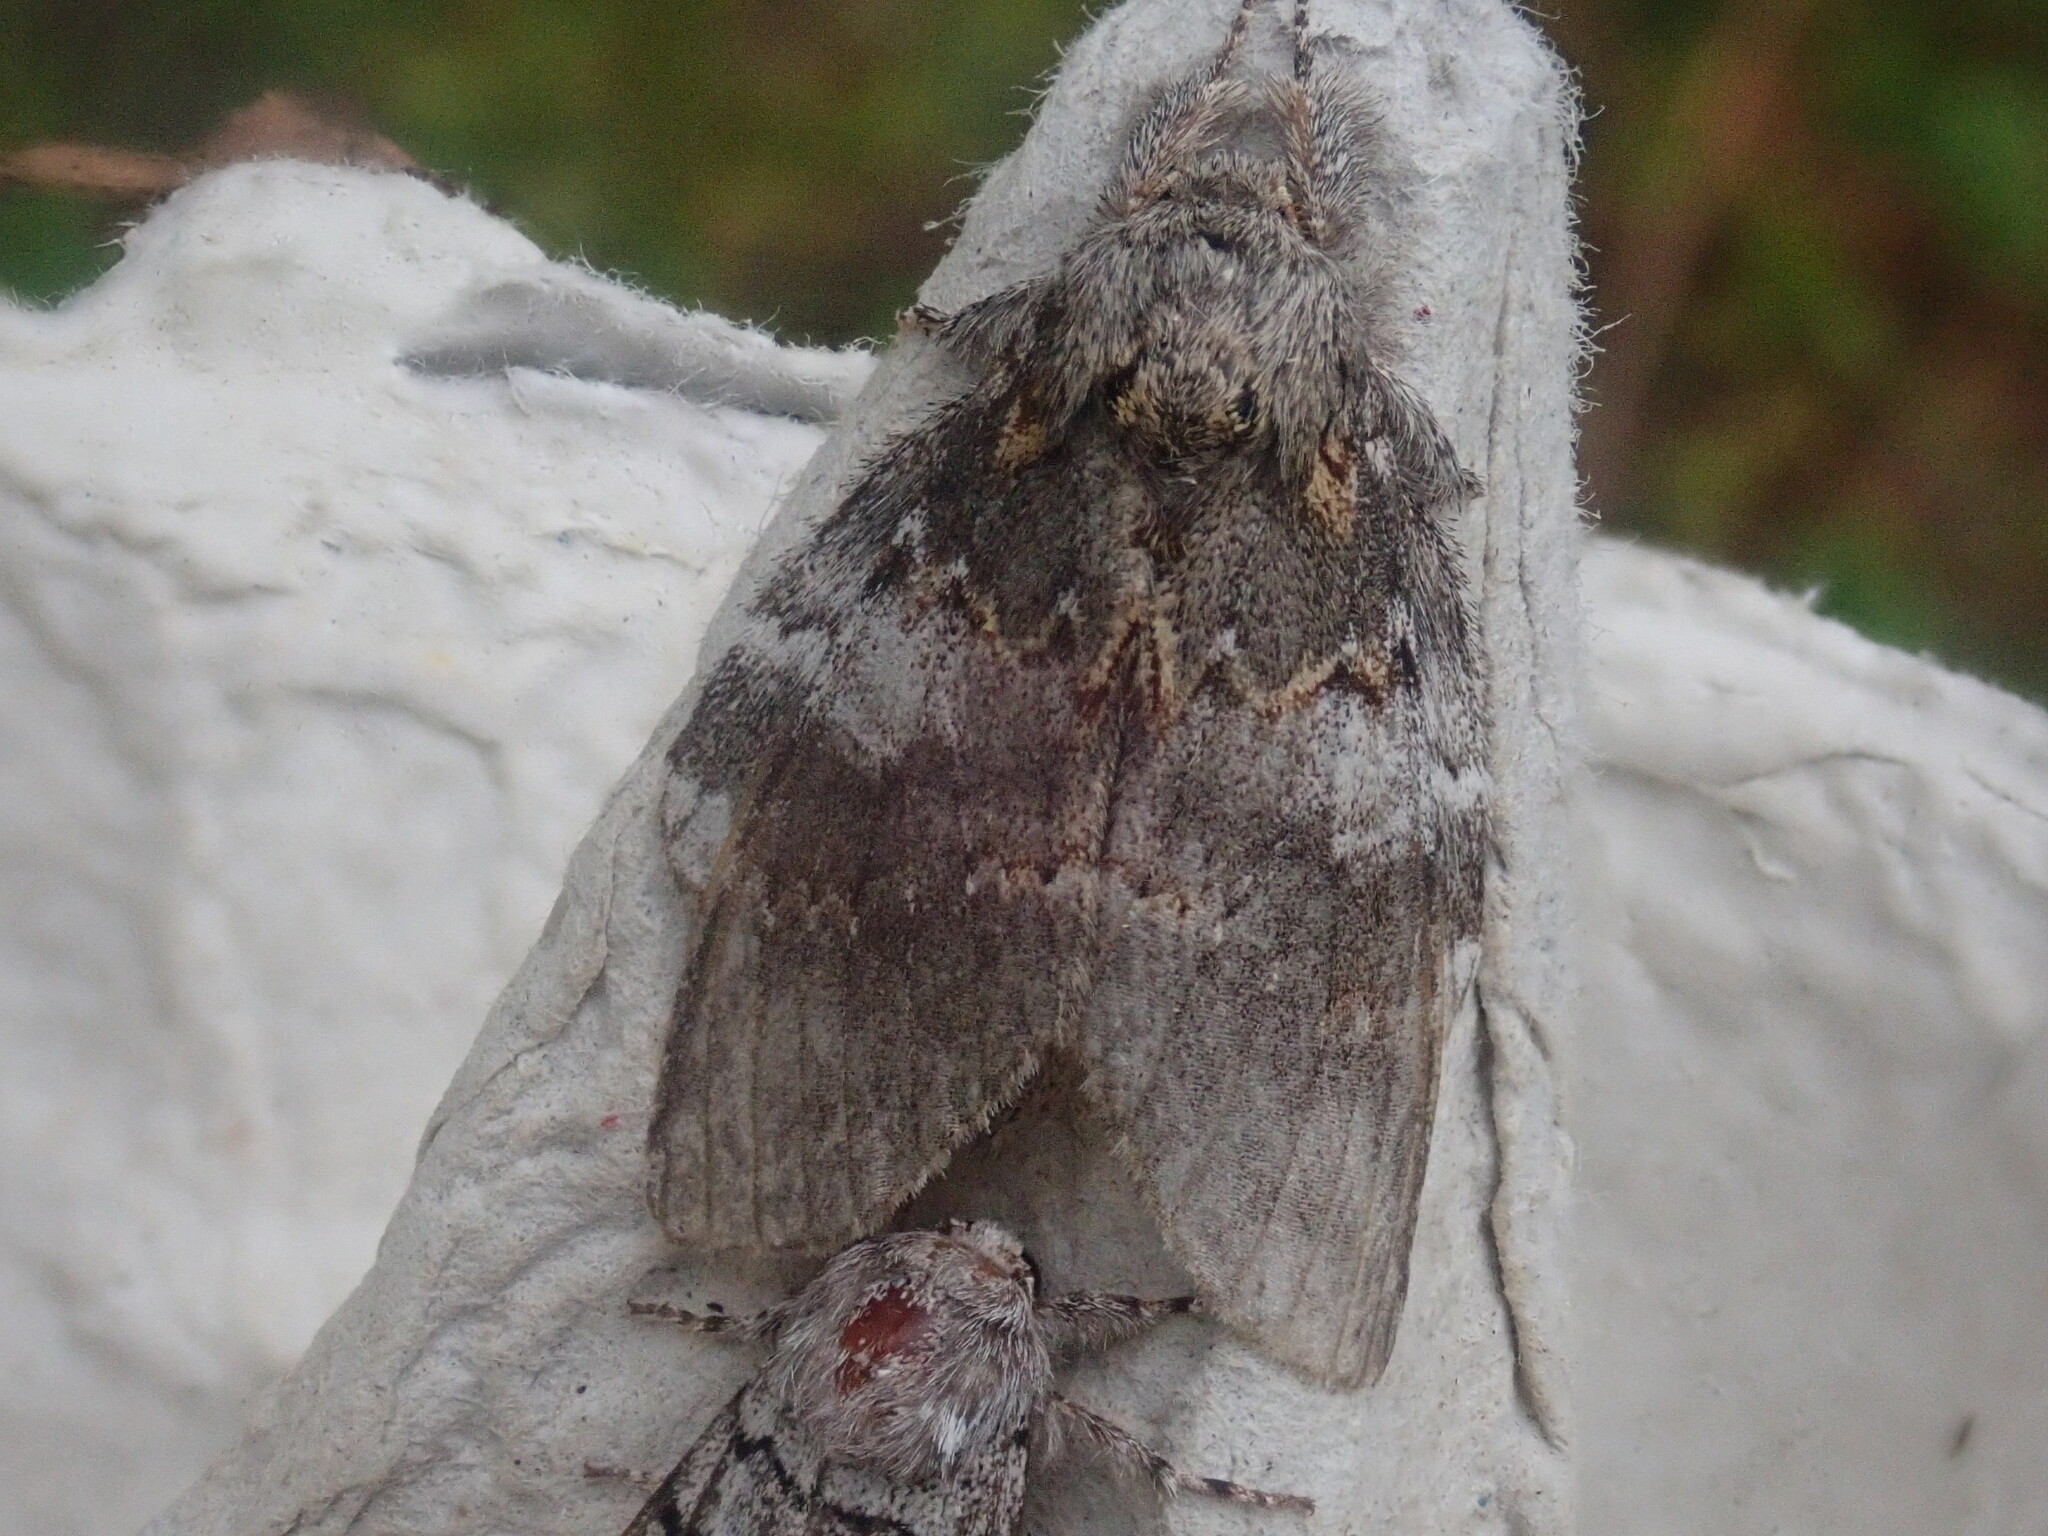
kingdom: Animalia
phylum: Arthropoda
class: Insecta
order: Lepidoptera
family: Notodontidae
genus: Peridea
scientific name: Peridea angulosa
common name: Angulose prominent
